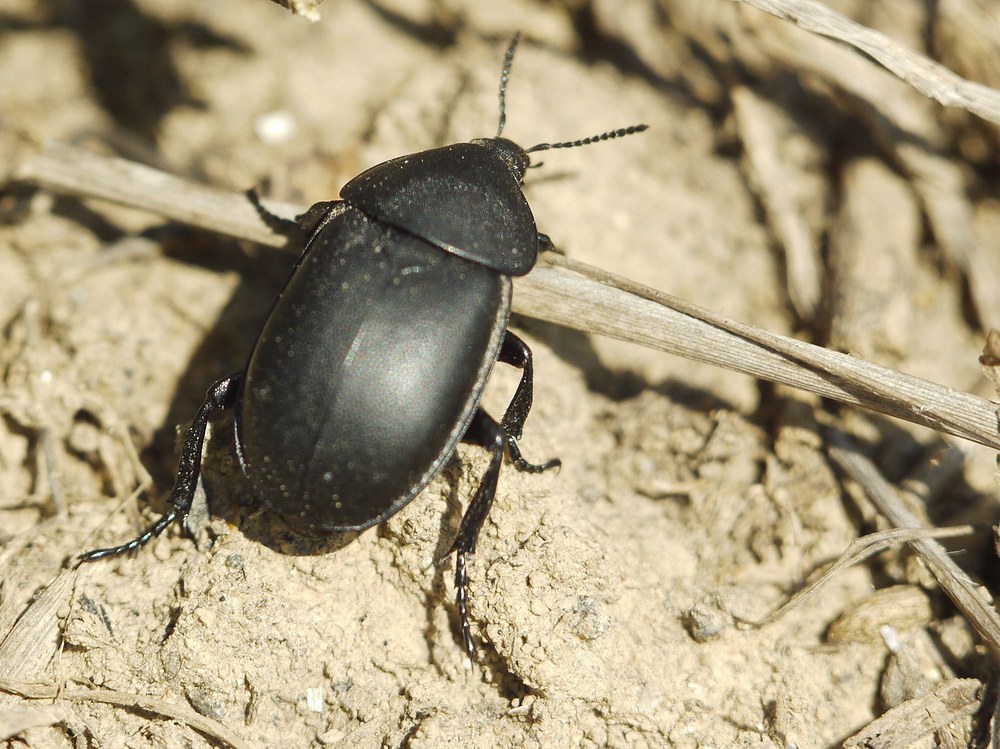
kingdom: Animalia
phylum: Arthropoda
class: Insecta
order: Coleoptera
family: Staphylinidae
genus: Silpha
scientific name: Silpha laevigata
